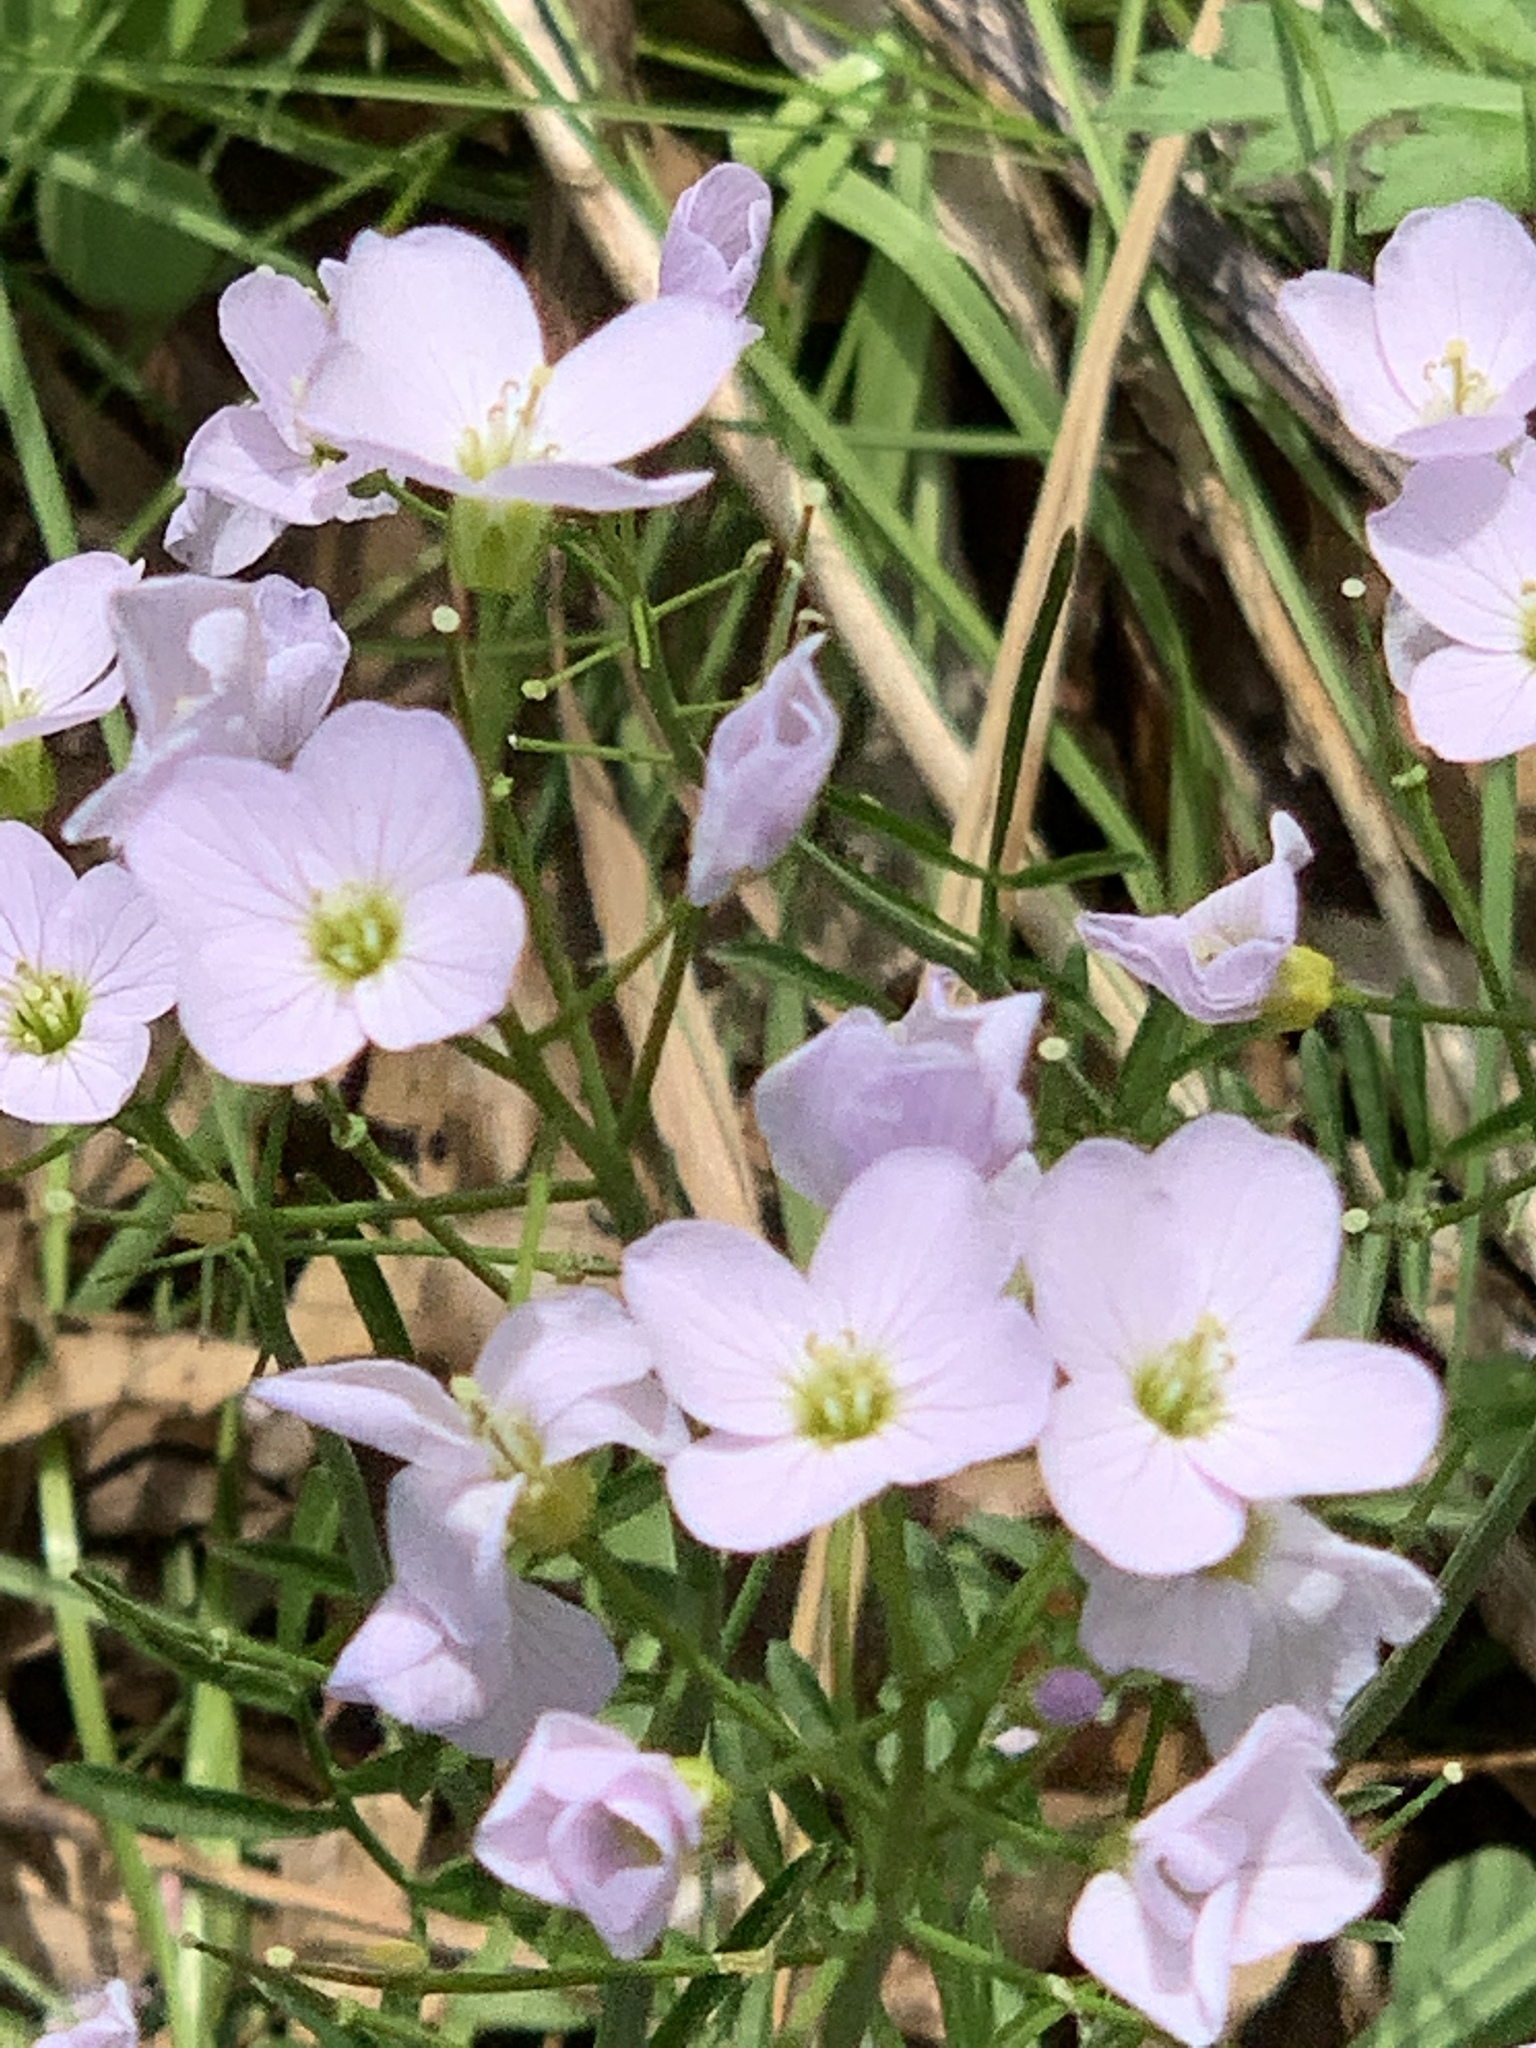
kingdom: Plantae
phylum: Tracheophyta
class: Magnoliopsida
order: Brassicales
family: Brassicaceae
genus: Cardamine
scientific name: Cardamine pratensis
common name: Cuckoo flower
